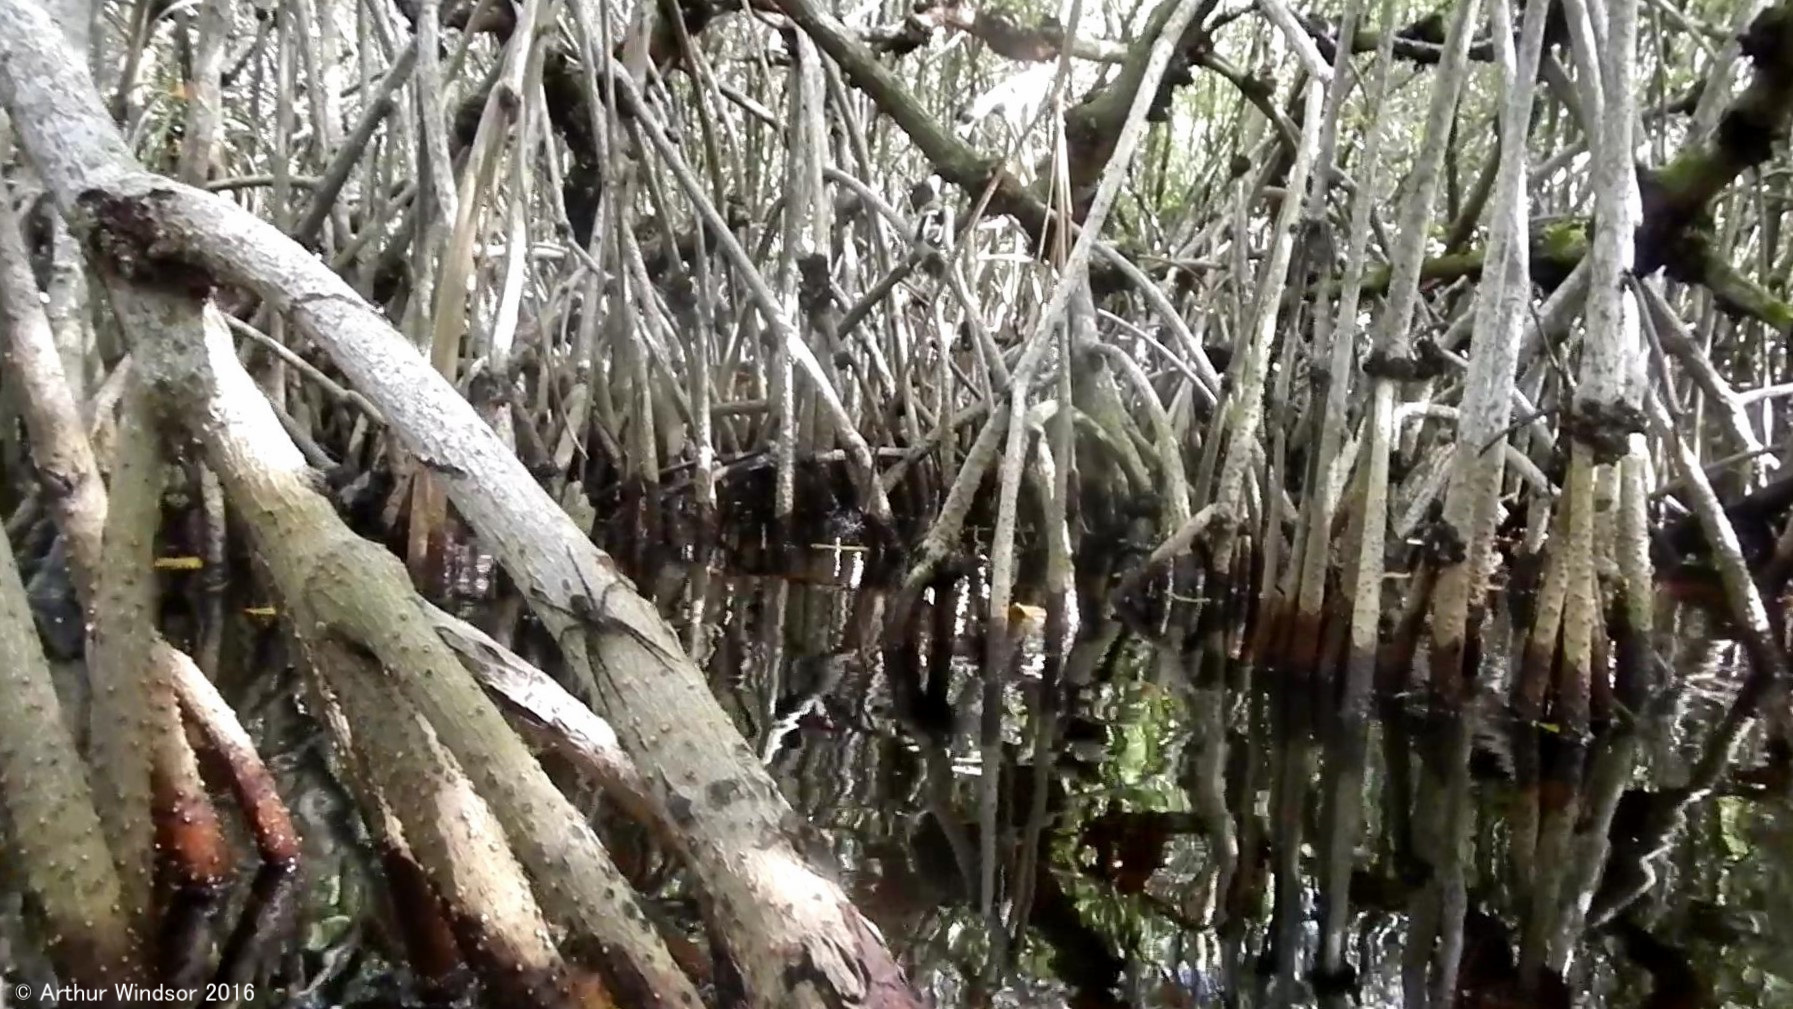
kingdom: Animalia
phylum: Arthropoda
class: Arachnida
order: Araneae
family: Pisauridae
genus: Dolomedes
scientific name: Dolomedes okefinokensis
